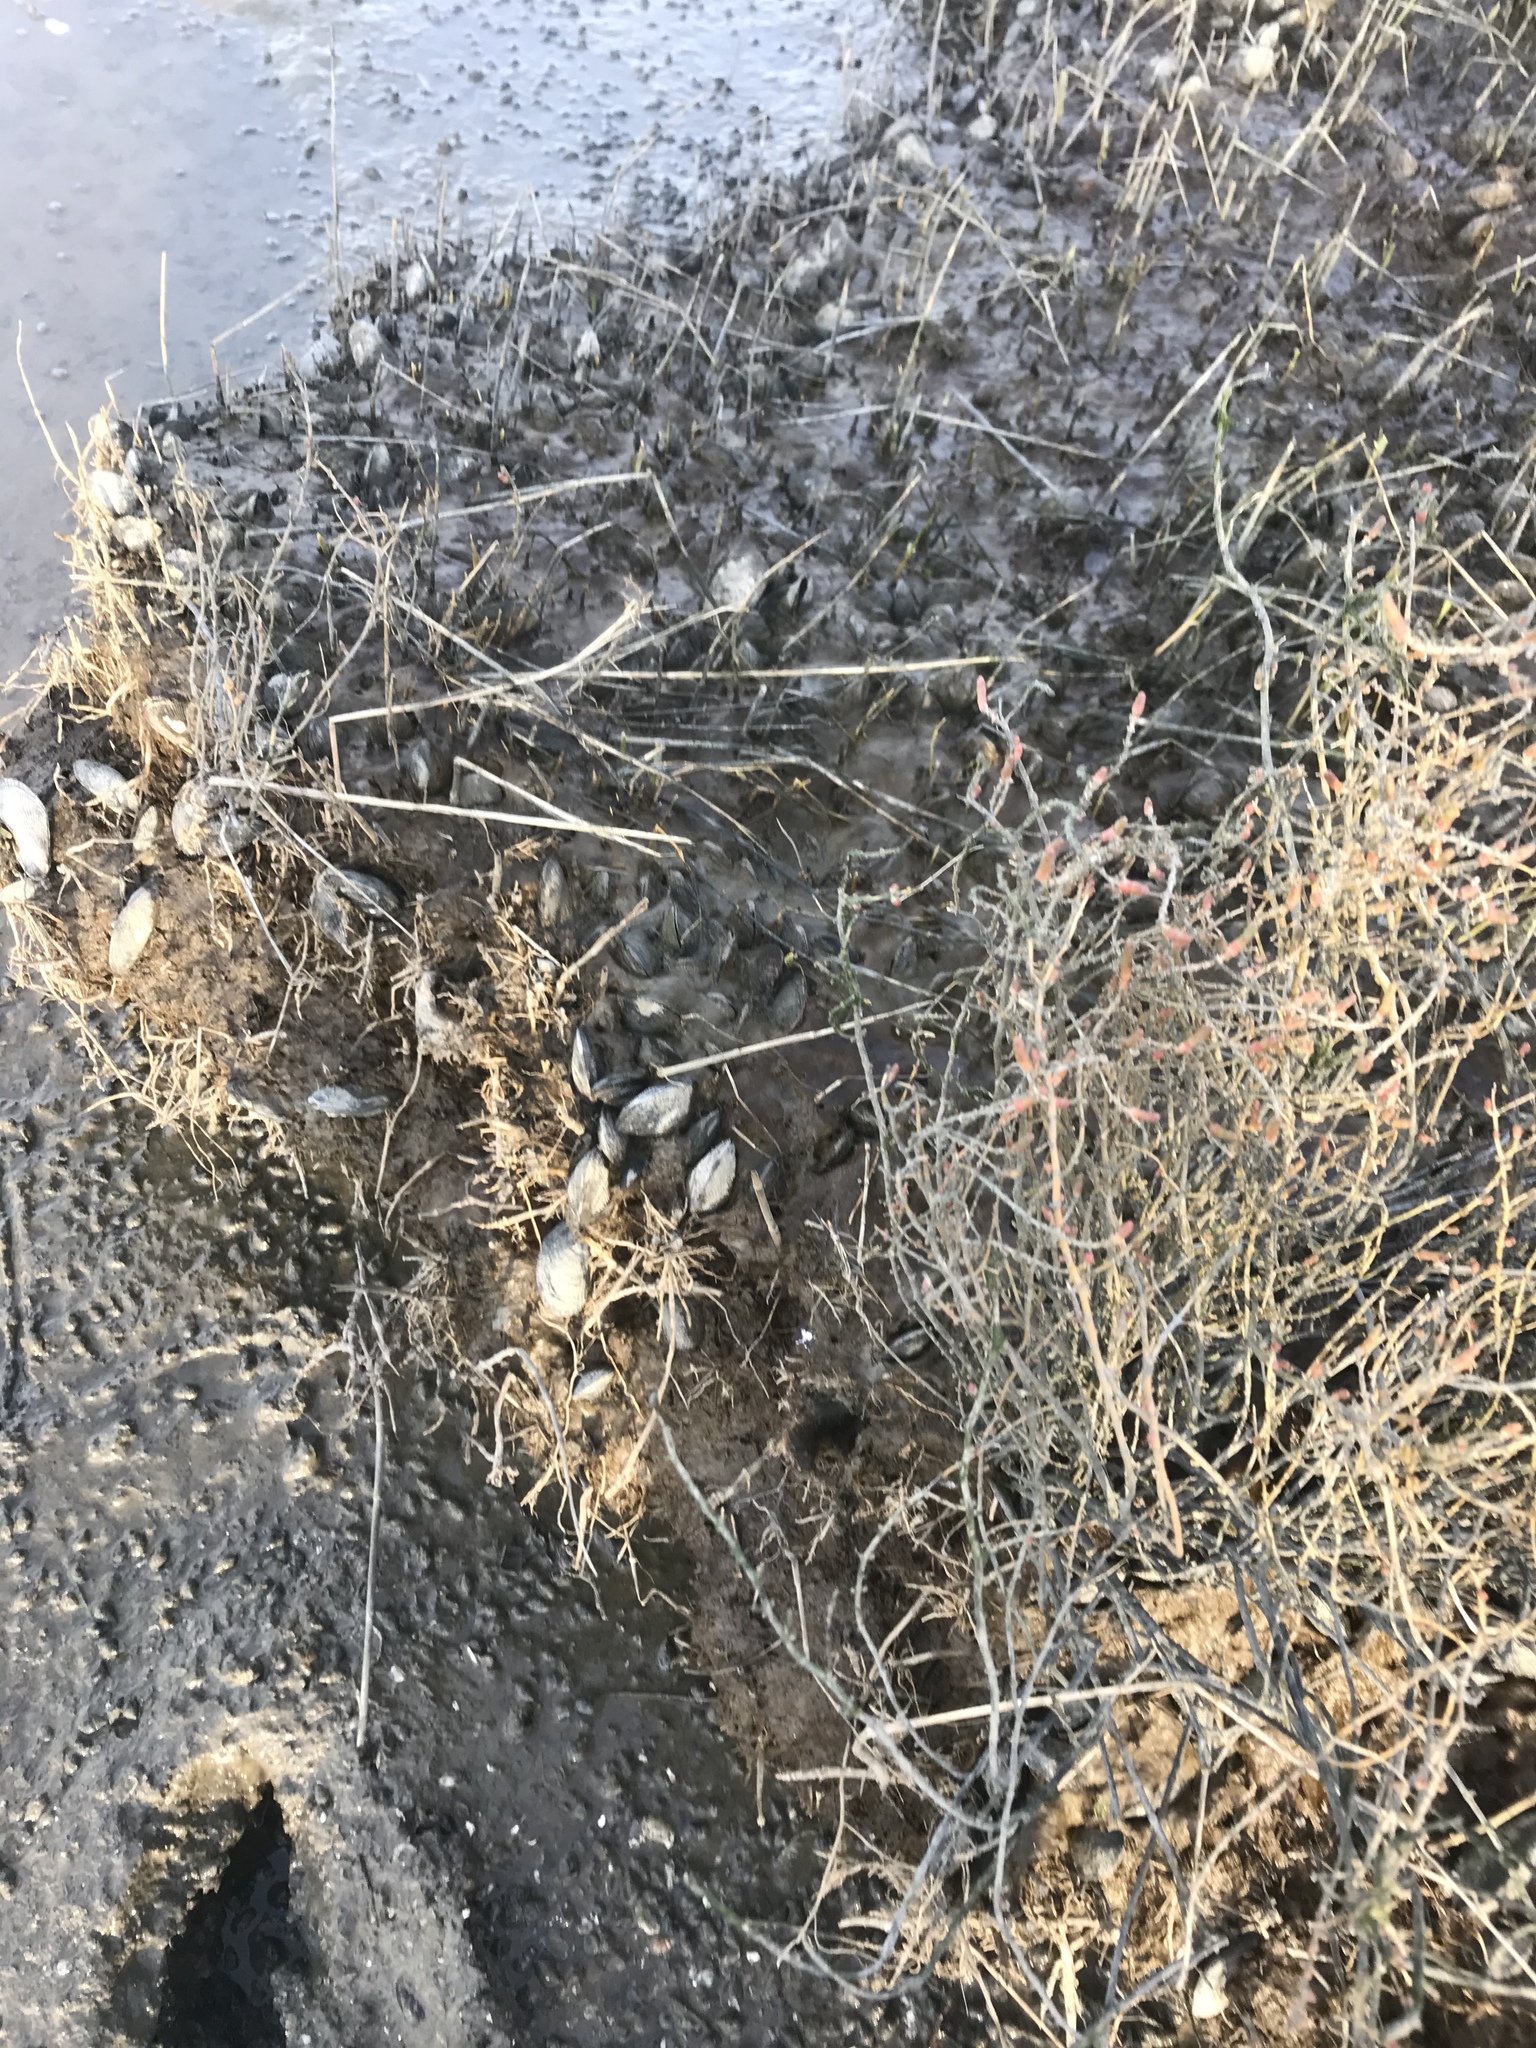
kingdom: Animalia
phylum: Mollusca
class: Bivalvia
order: Mytilida
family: Mytilidae
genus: Geukensia
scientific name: Geukensia demissa
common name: Ribbed mussel
